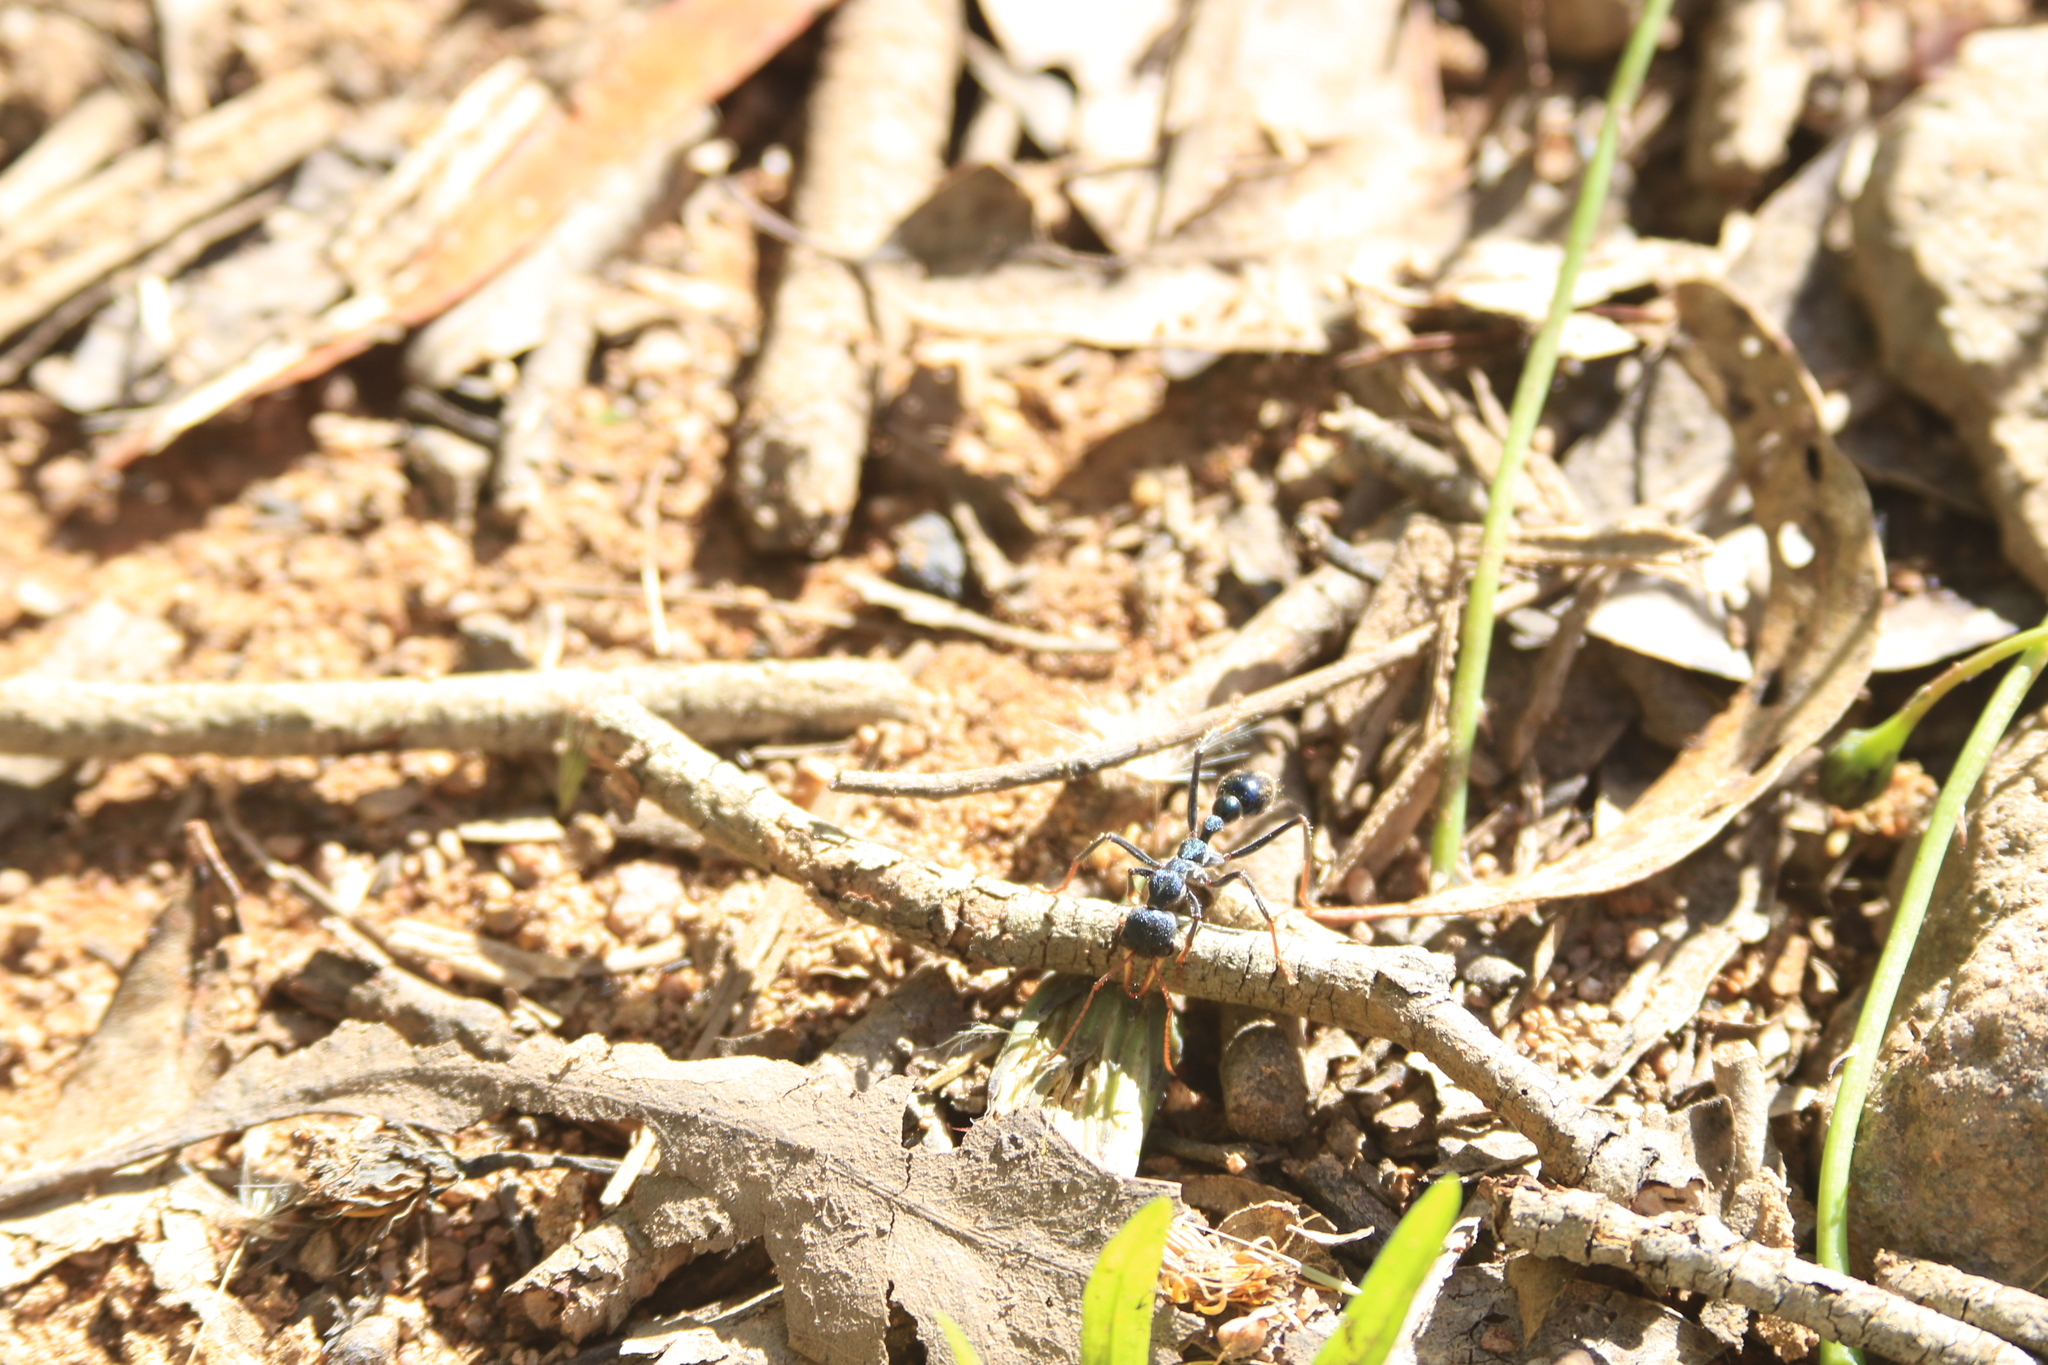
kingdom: Animalia
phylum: Arthropoda
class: Insecta
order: Hymenoptera
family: Formicidae
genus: Myrmecia
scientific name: Myrmecia tarsata
